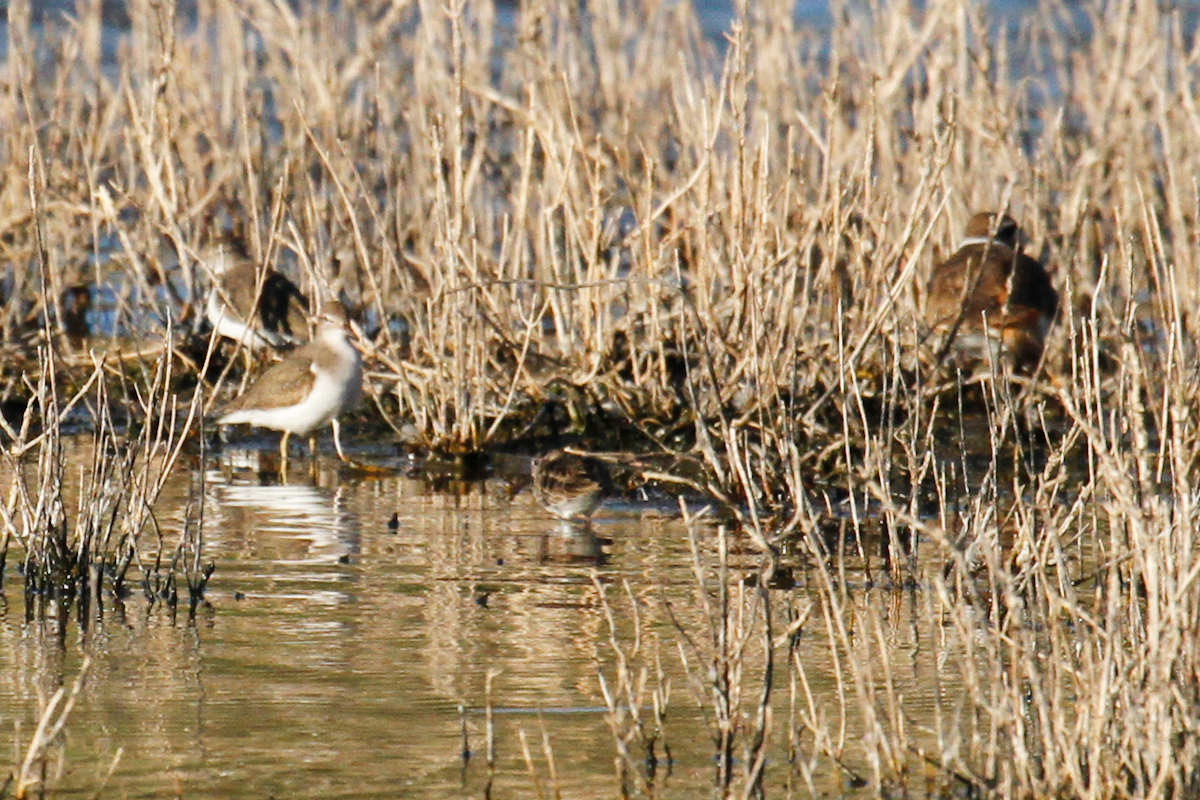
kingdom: Animalia
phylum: Chordata
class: Aves
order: Charadriiformes
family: Scolopacidae
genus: Actitis
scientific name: Actitis macularius
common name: Spotted sandpiper
